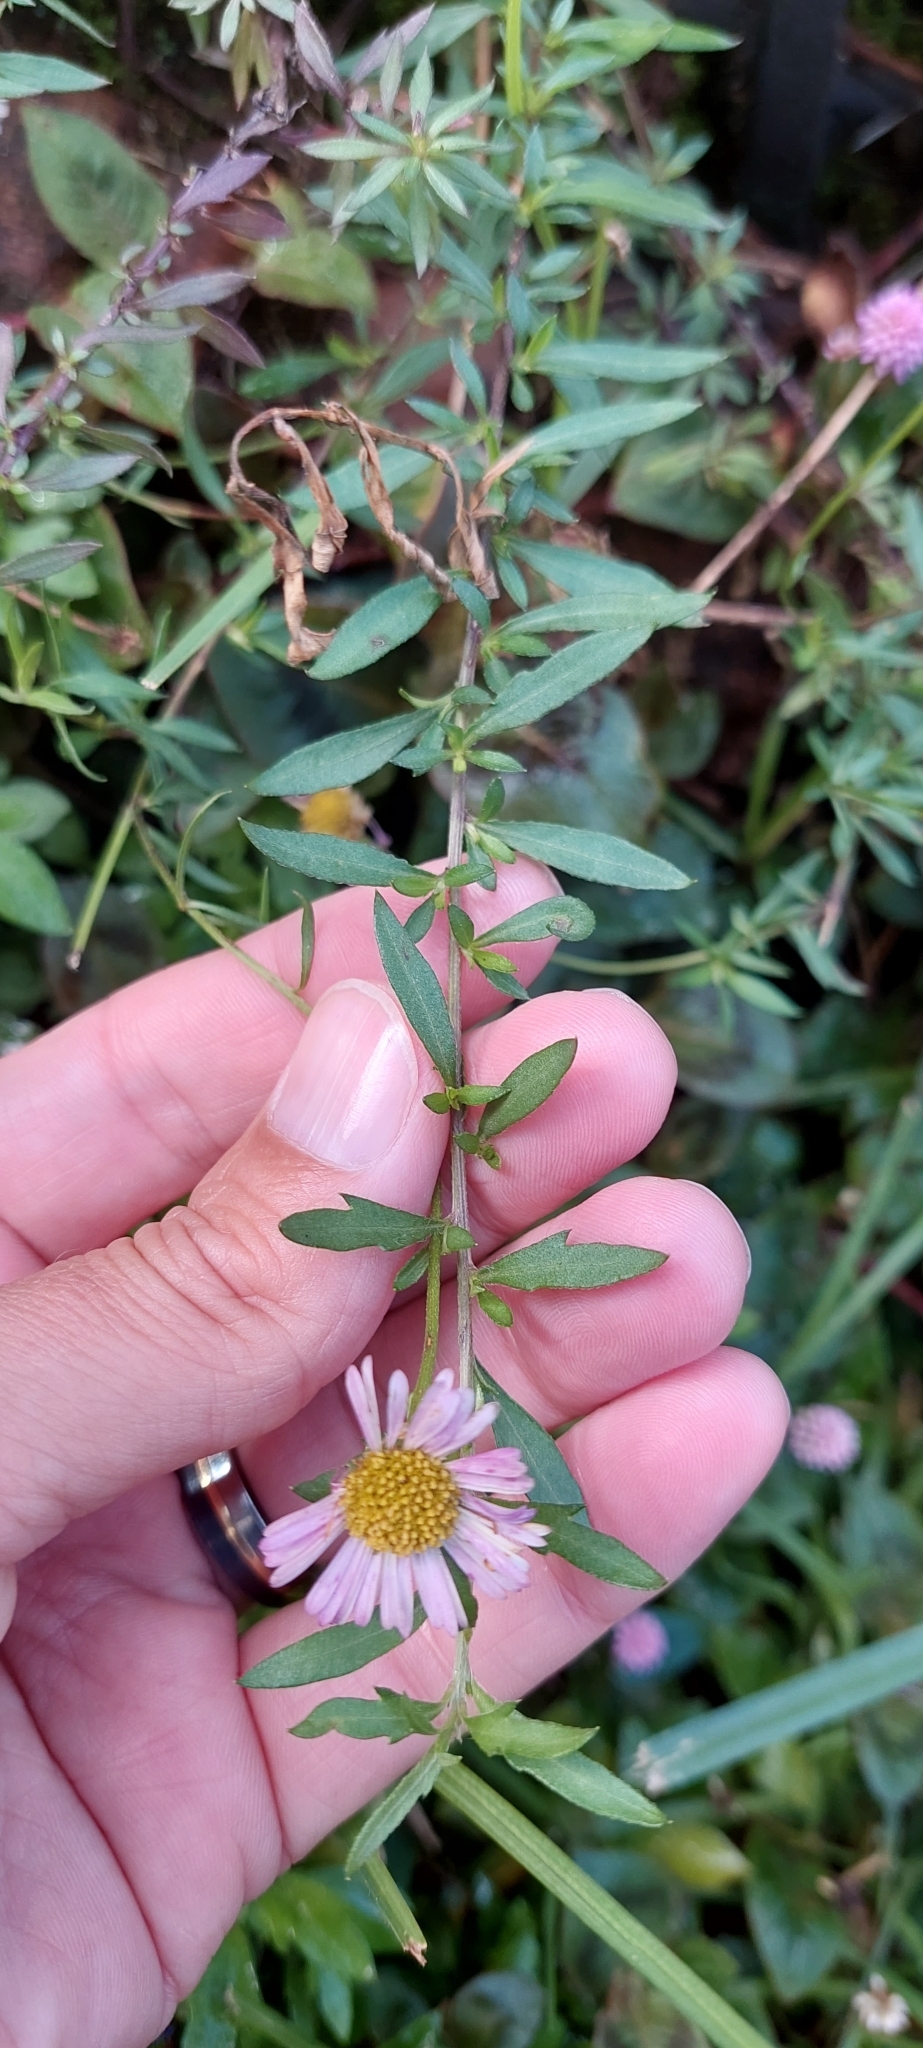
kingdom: Plantae
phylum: Tracheophyta
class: Magnoliopsida
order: Asterales
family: Asteraceae
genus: Erigeron
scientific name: Erigeron karvinskianus
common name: Mexican fleabane
